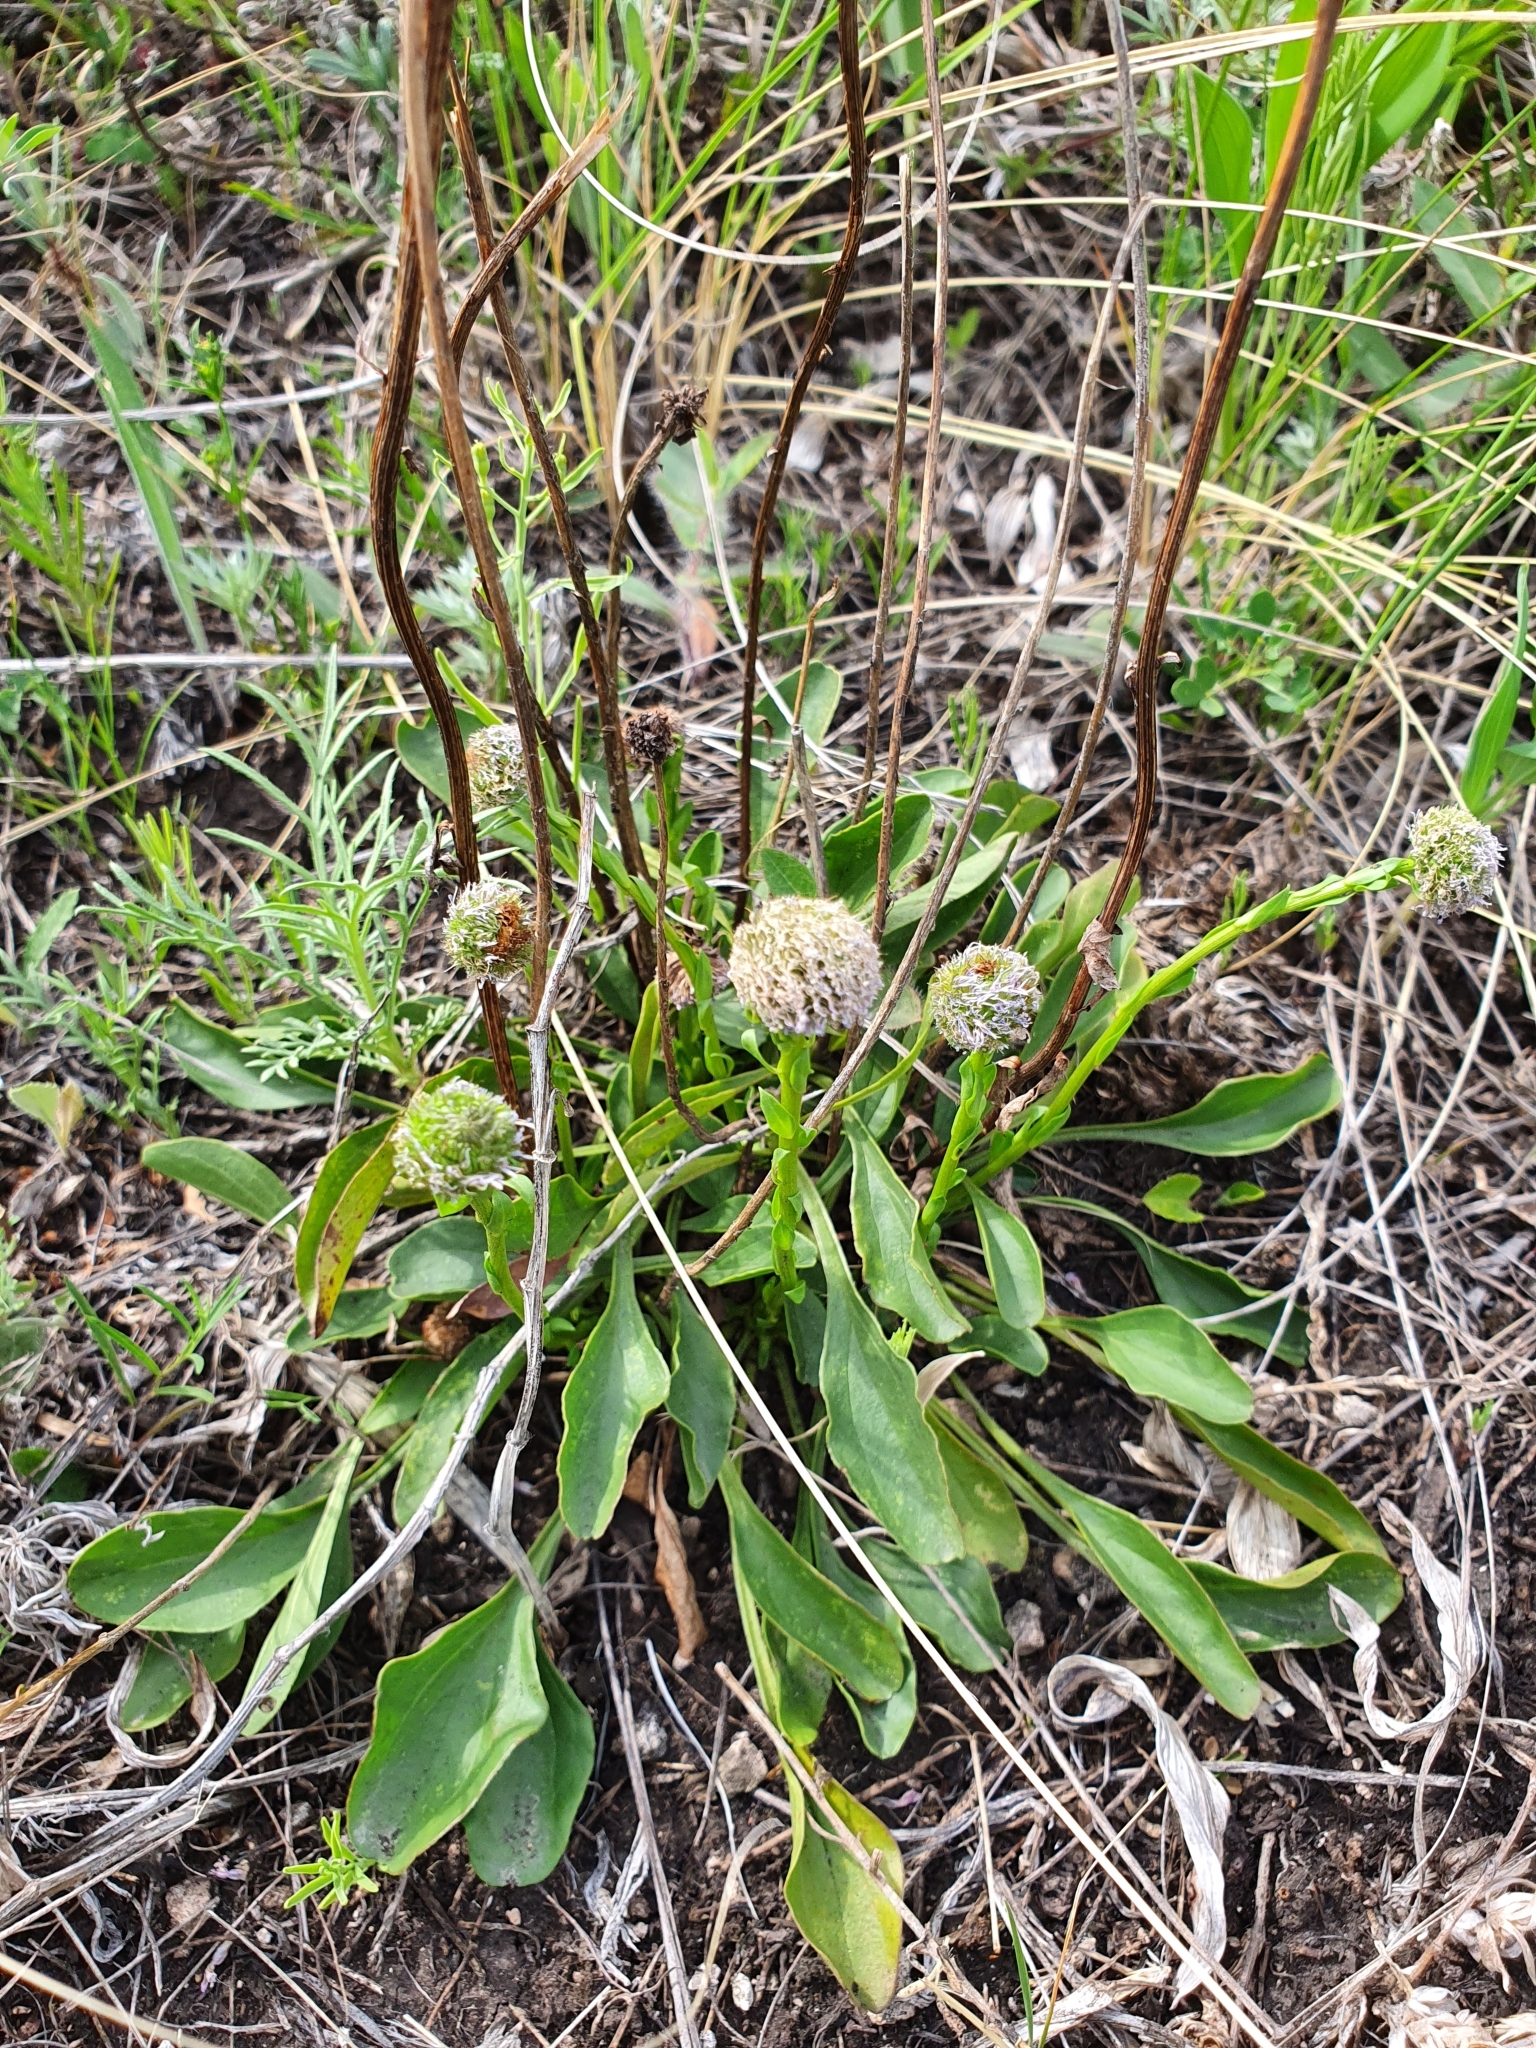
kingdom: Plantae
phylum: Tracheophyta
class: Magnoliopsida
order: Lamiales
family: Plantaginaceae
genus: Globularia
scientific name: Globularia bisnagarica
